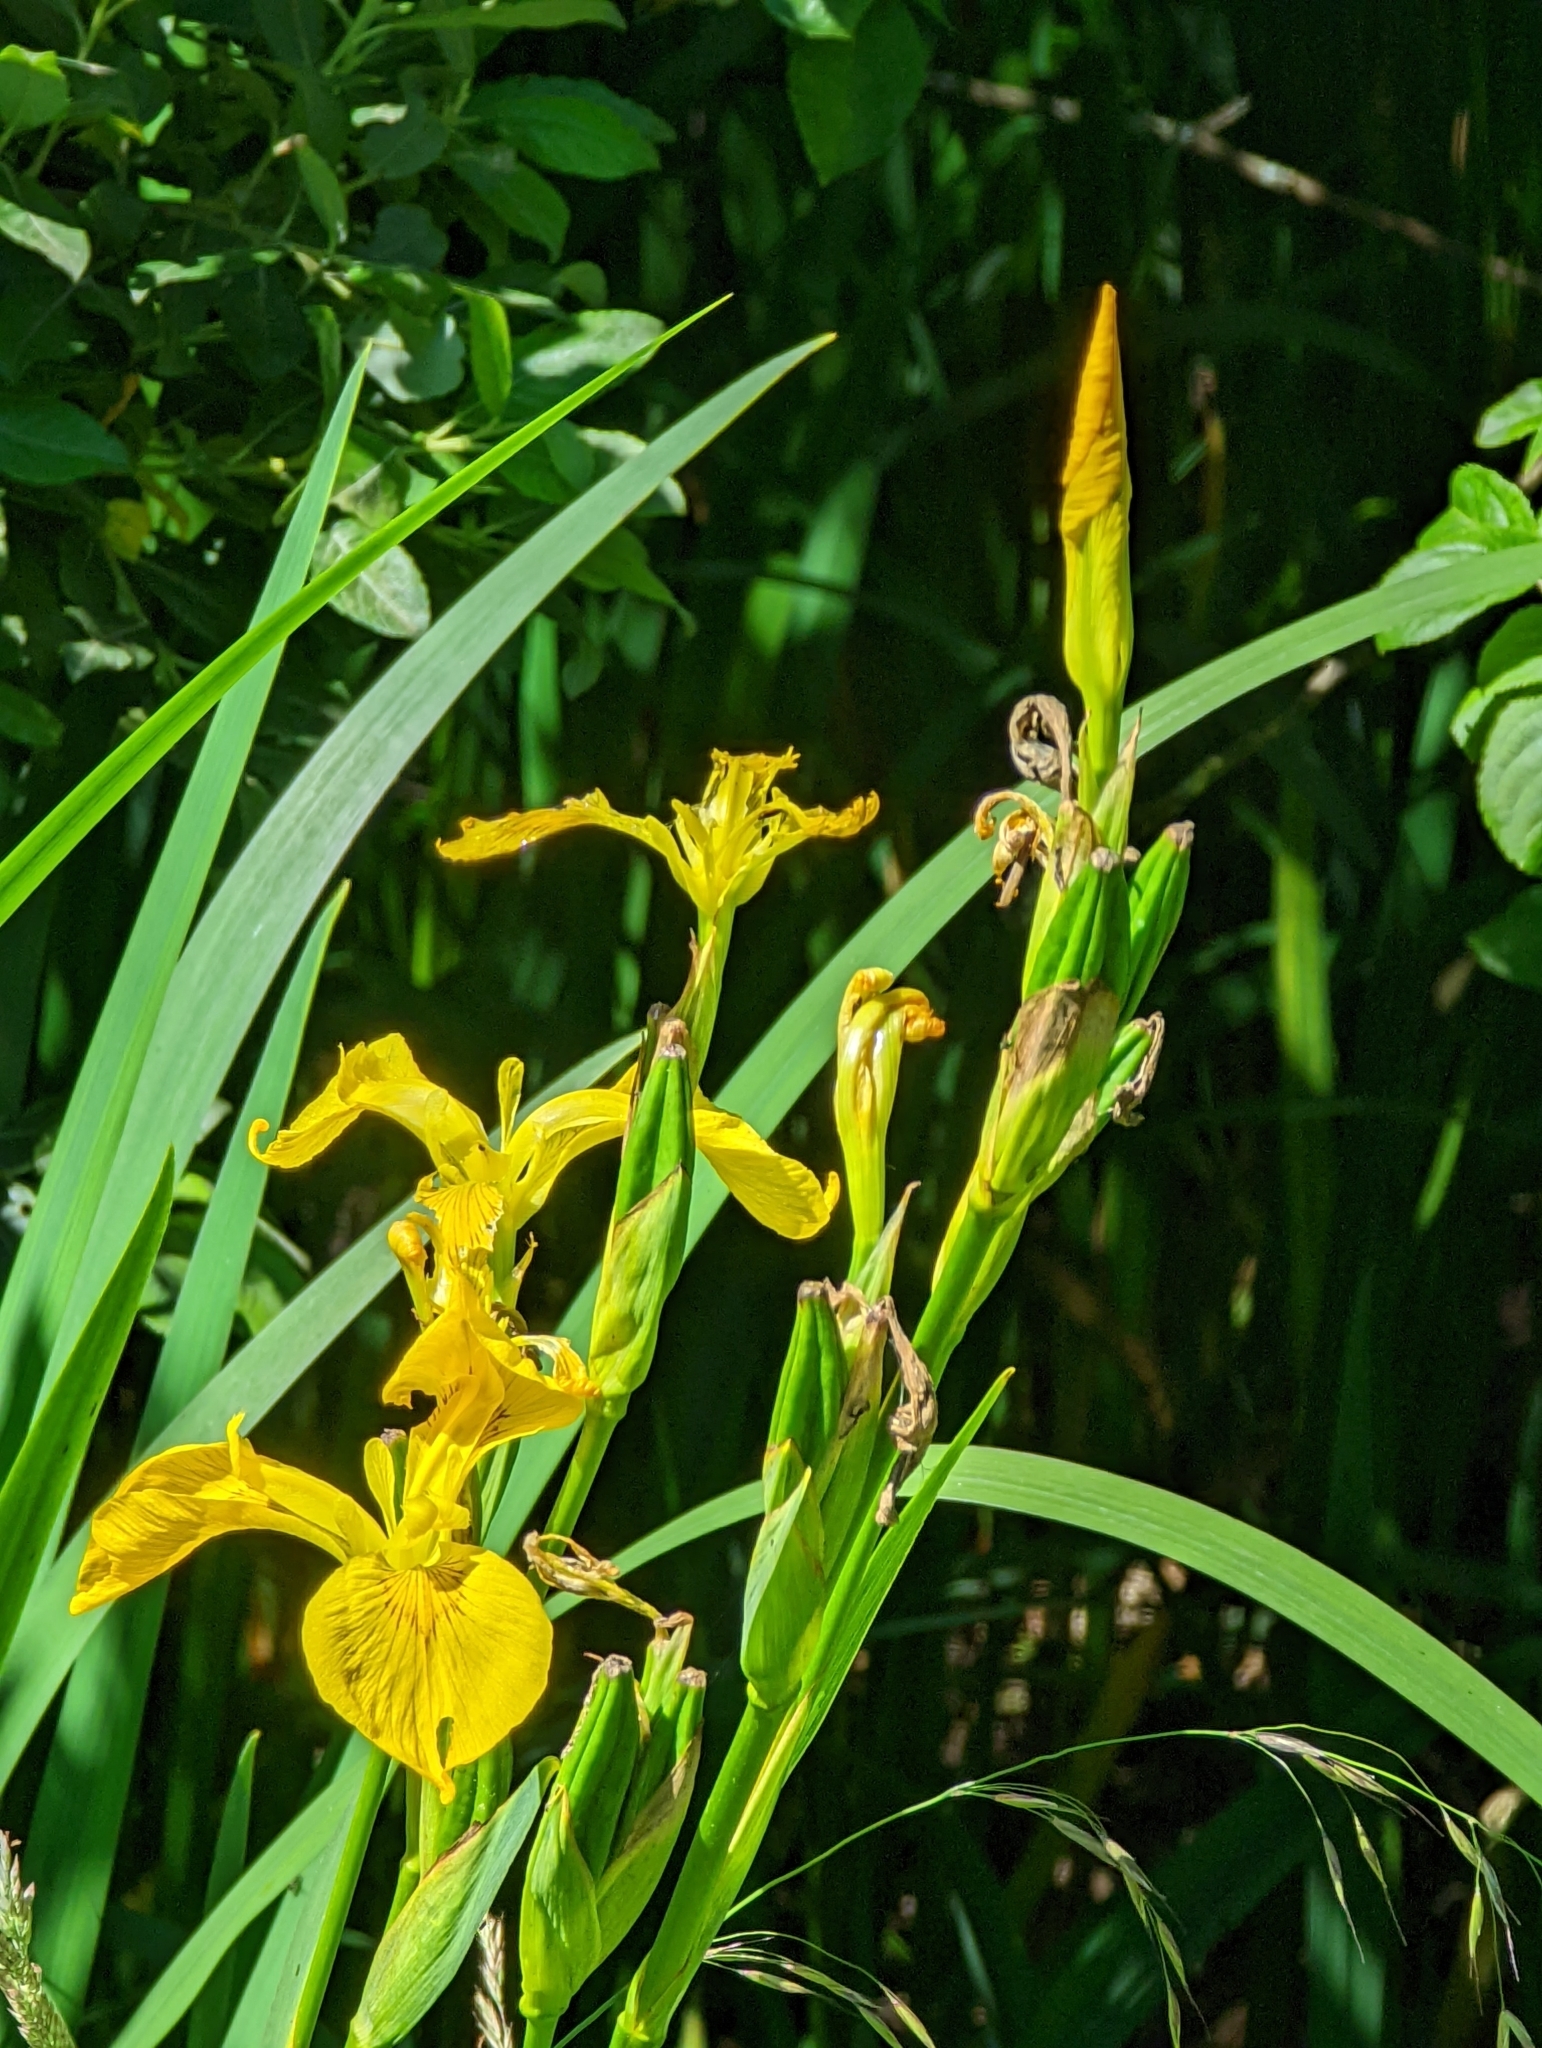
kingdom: Plantae
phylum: Tracheophyta
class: Liliopsida
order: Asparagales
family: Iridaceae
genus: Iris
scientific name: Iris pseudacorus
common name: Yellow flag
